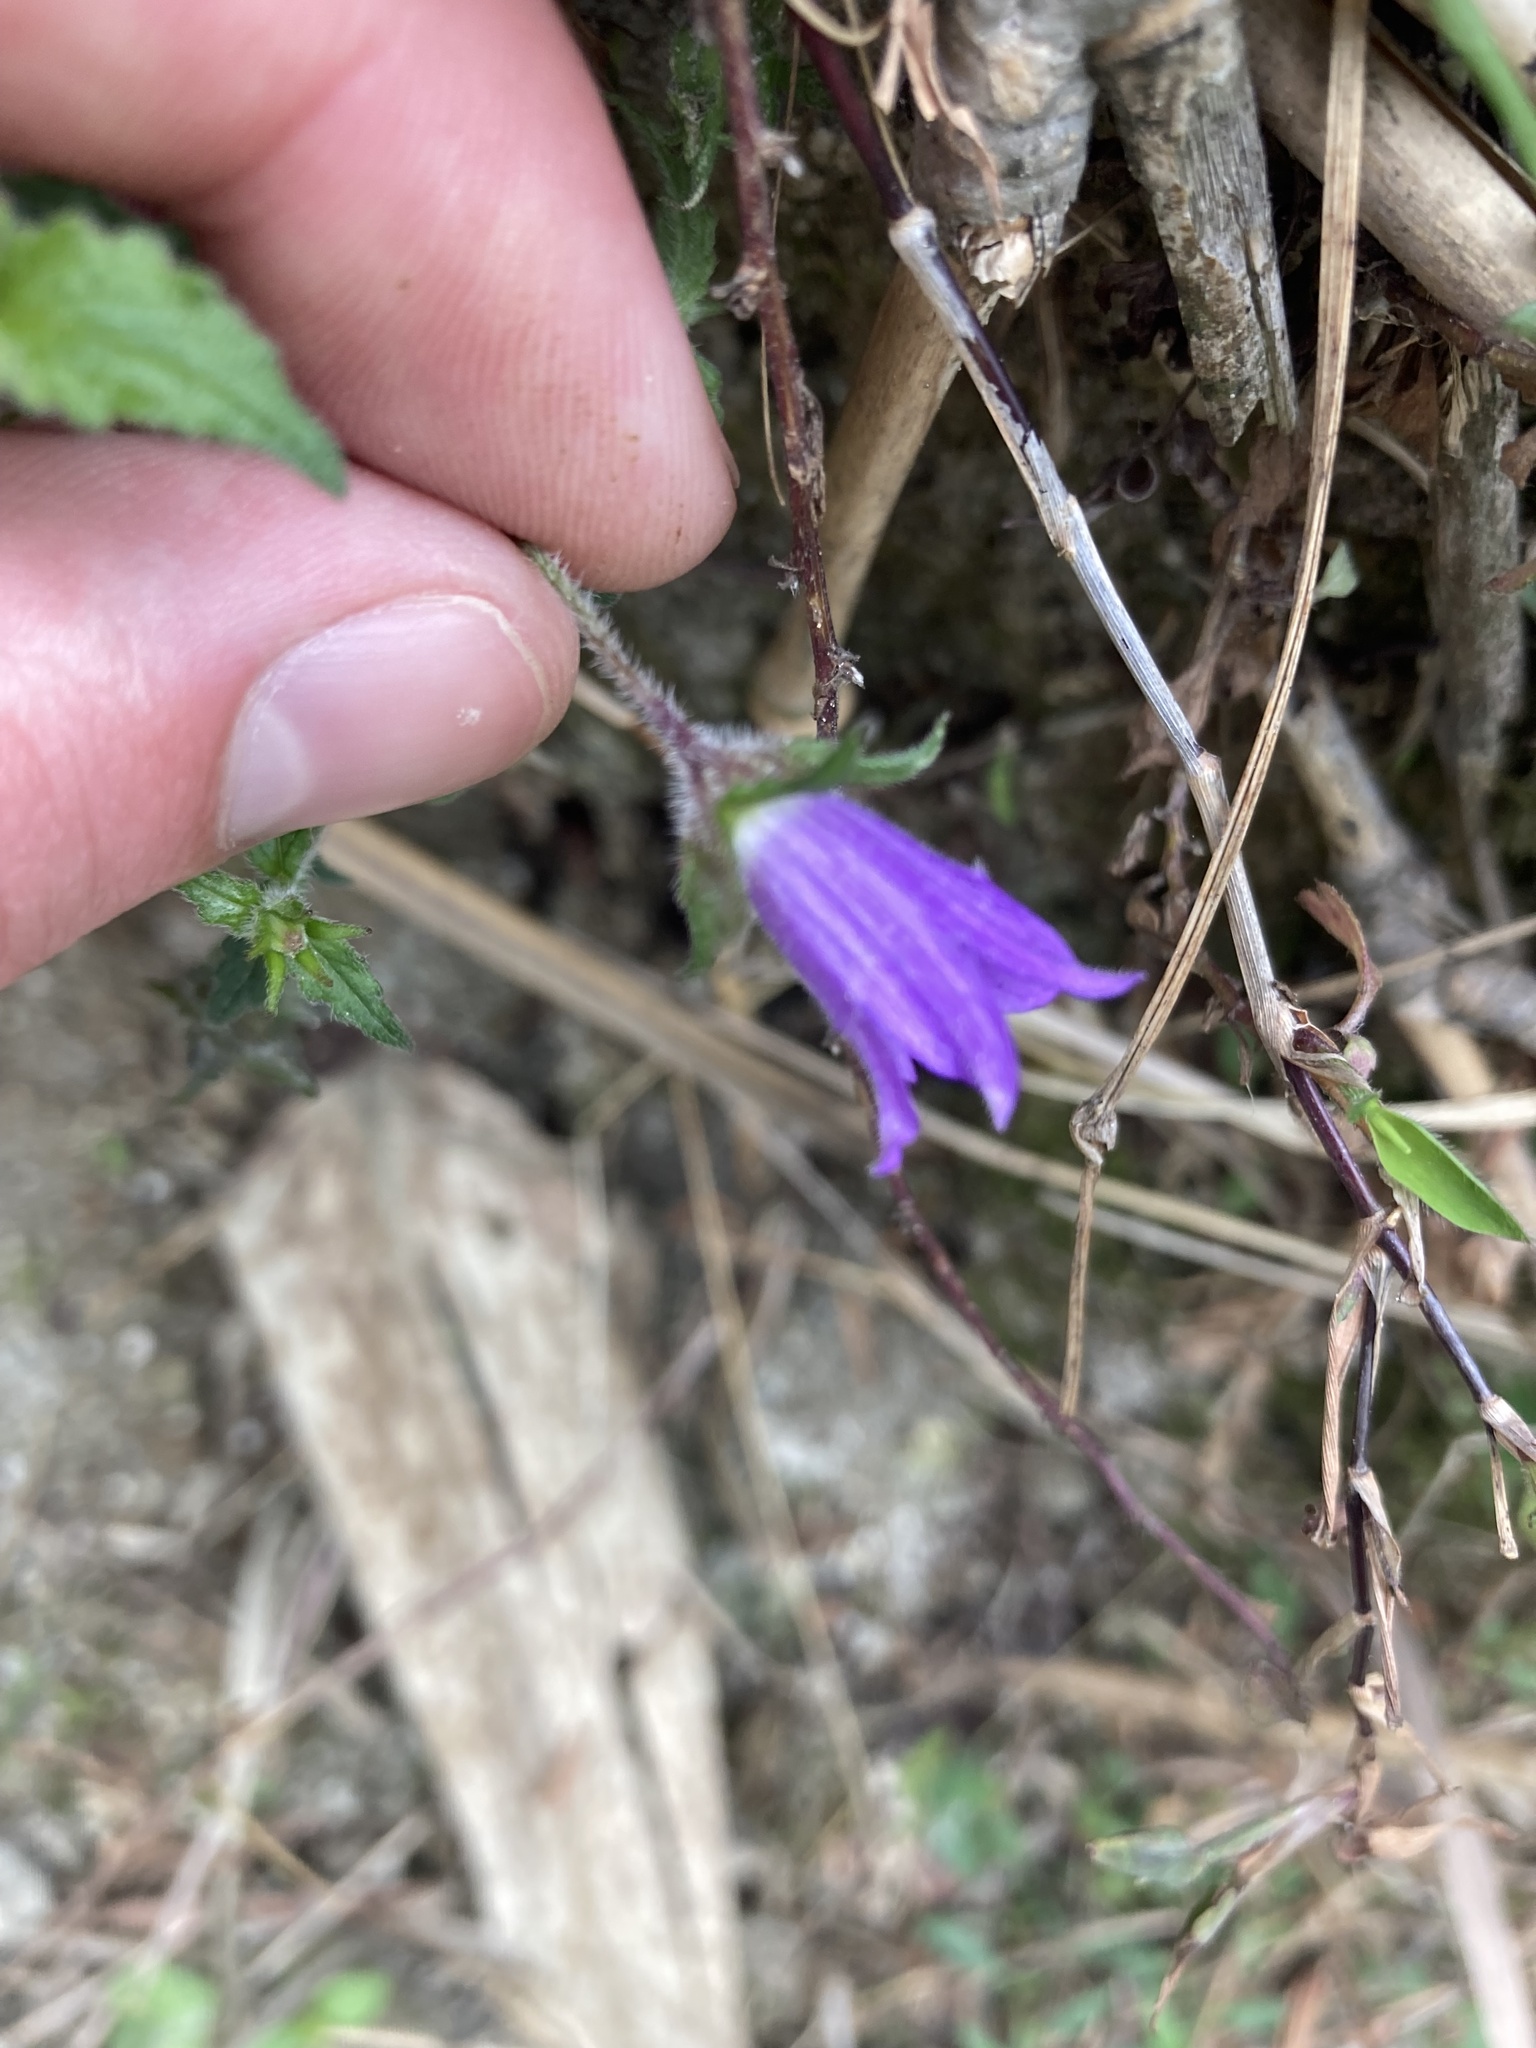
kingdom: Plantae
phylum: Tracheophyta
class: Magnoliopsida
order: Asterales
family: Campanulaceae
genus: Campanula
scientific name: Campanula pallida
